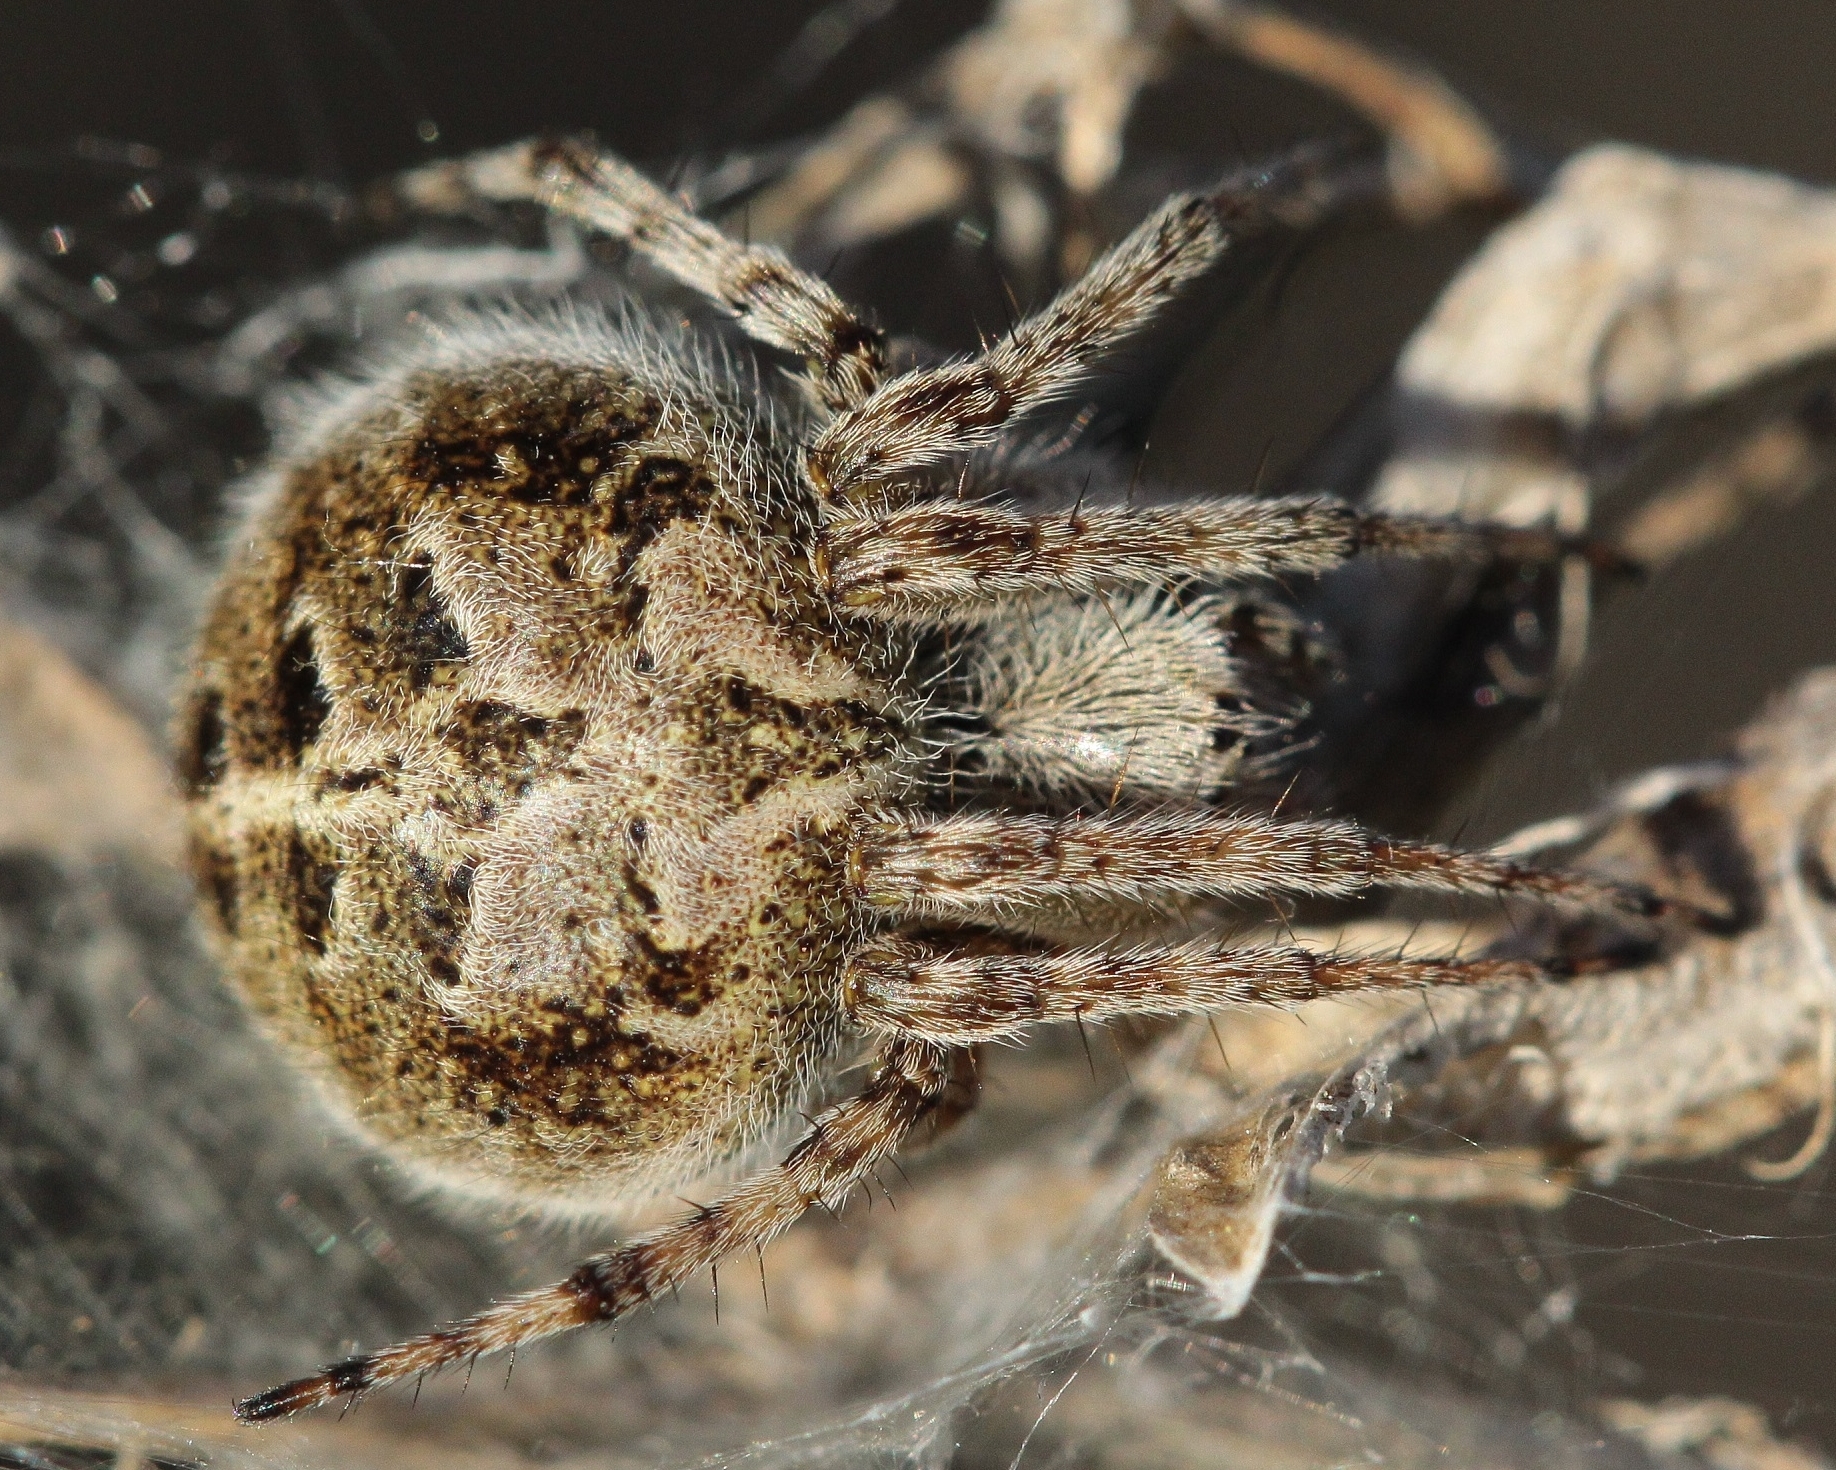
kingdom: Animalia
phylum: Arthropoda
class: Arachnida
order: Araneae
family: Araneidae
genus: Agalenatea
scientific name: Agalenatea redii
